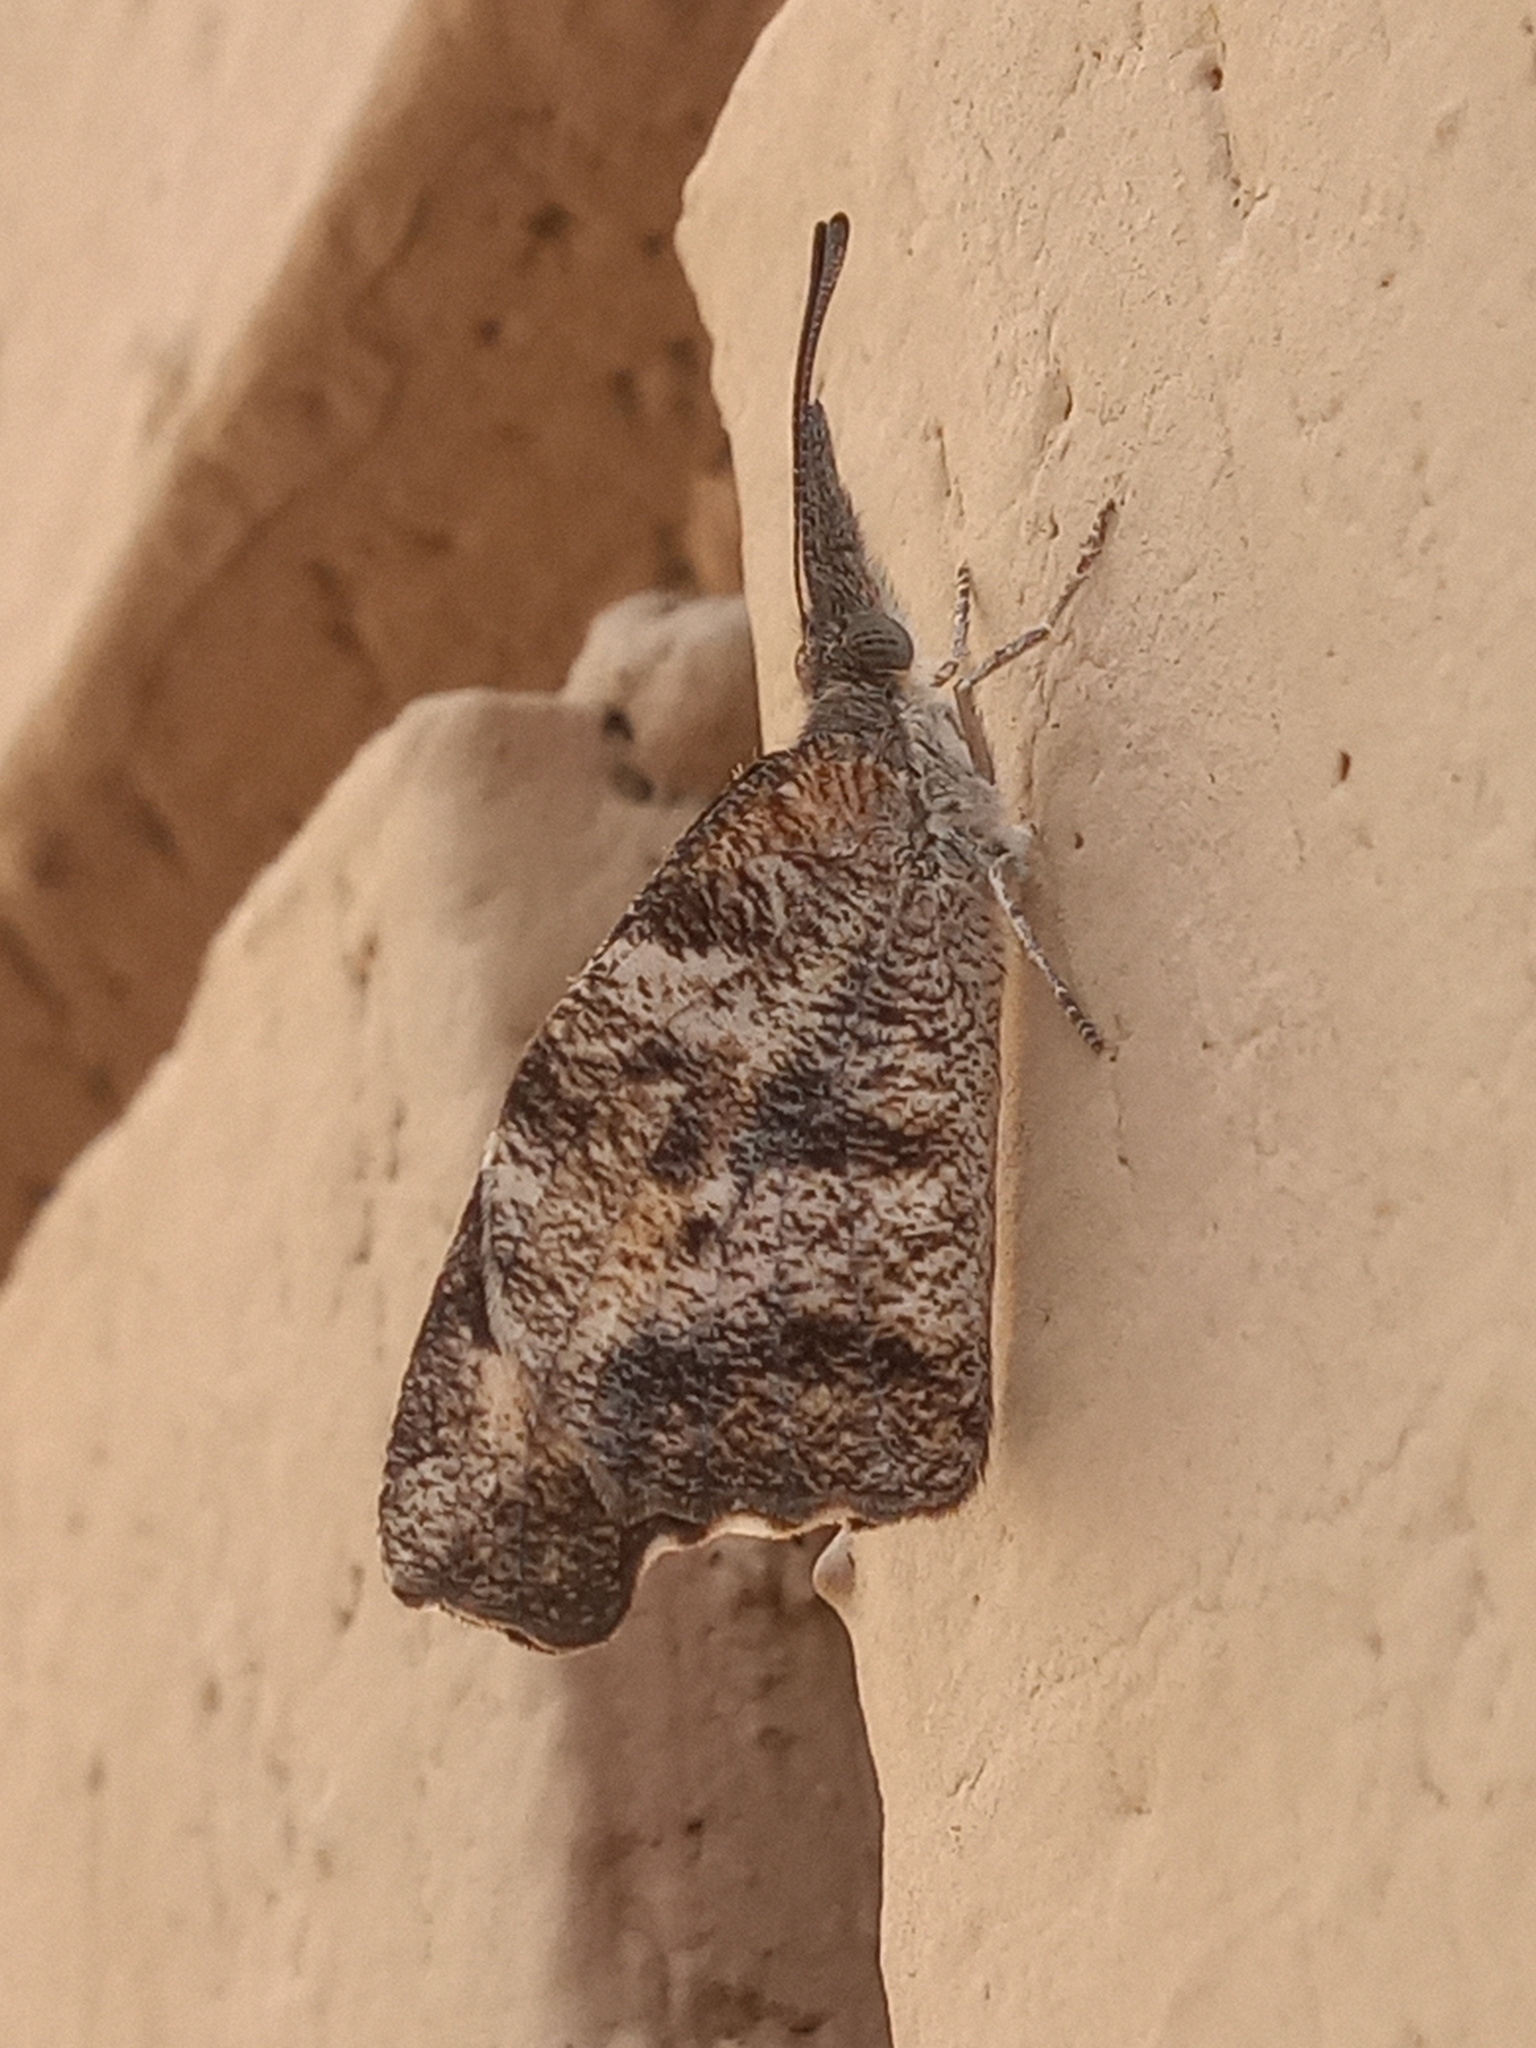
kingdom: Animalia
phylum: Arthropoda
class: Insecta
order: Lepidoptera
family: Nymphalidae
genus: Libytheana
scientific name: Libytheana carinenta
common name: American snout
